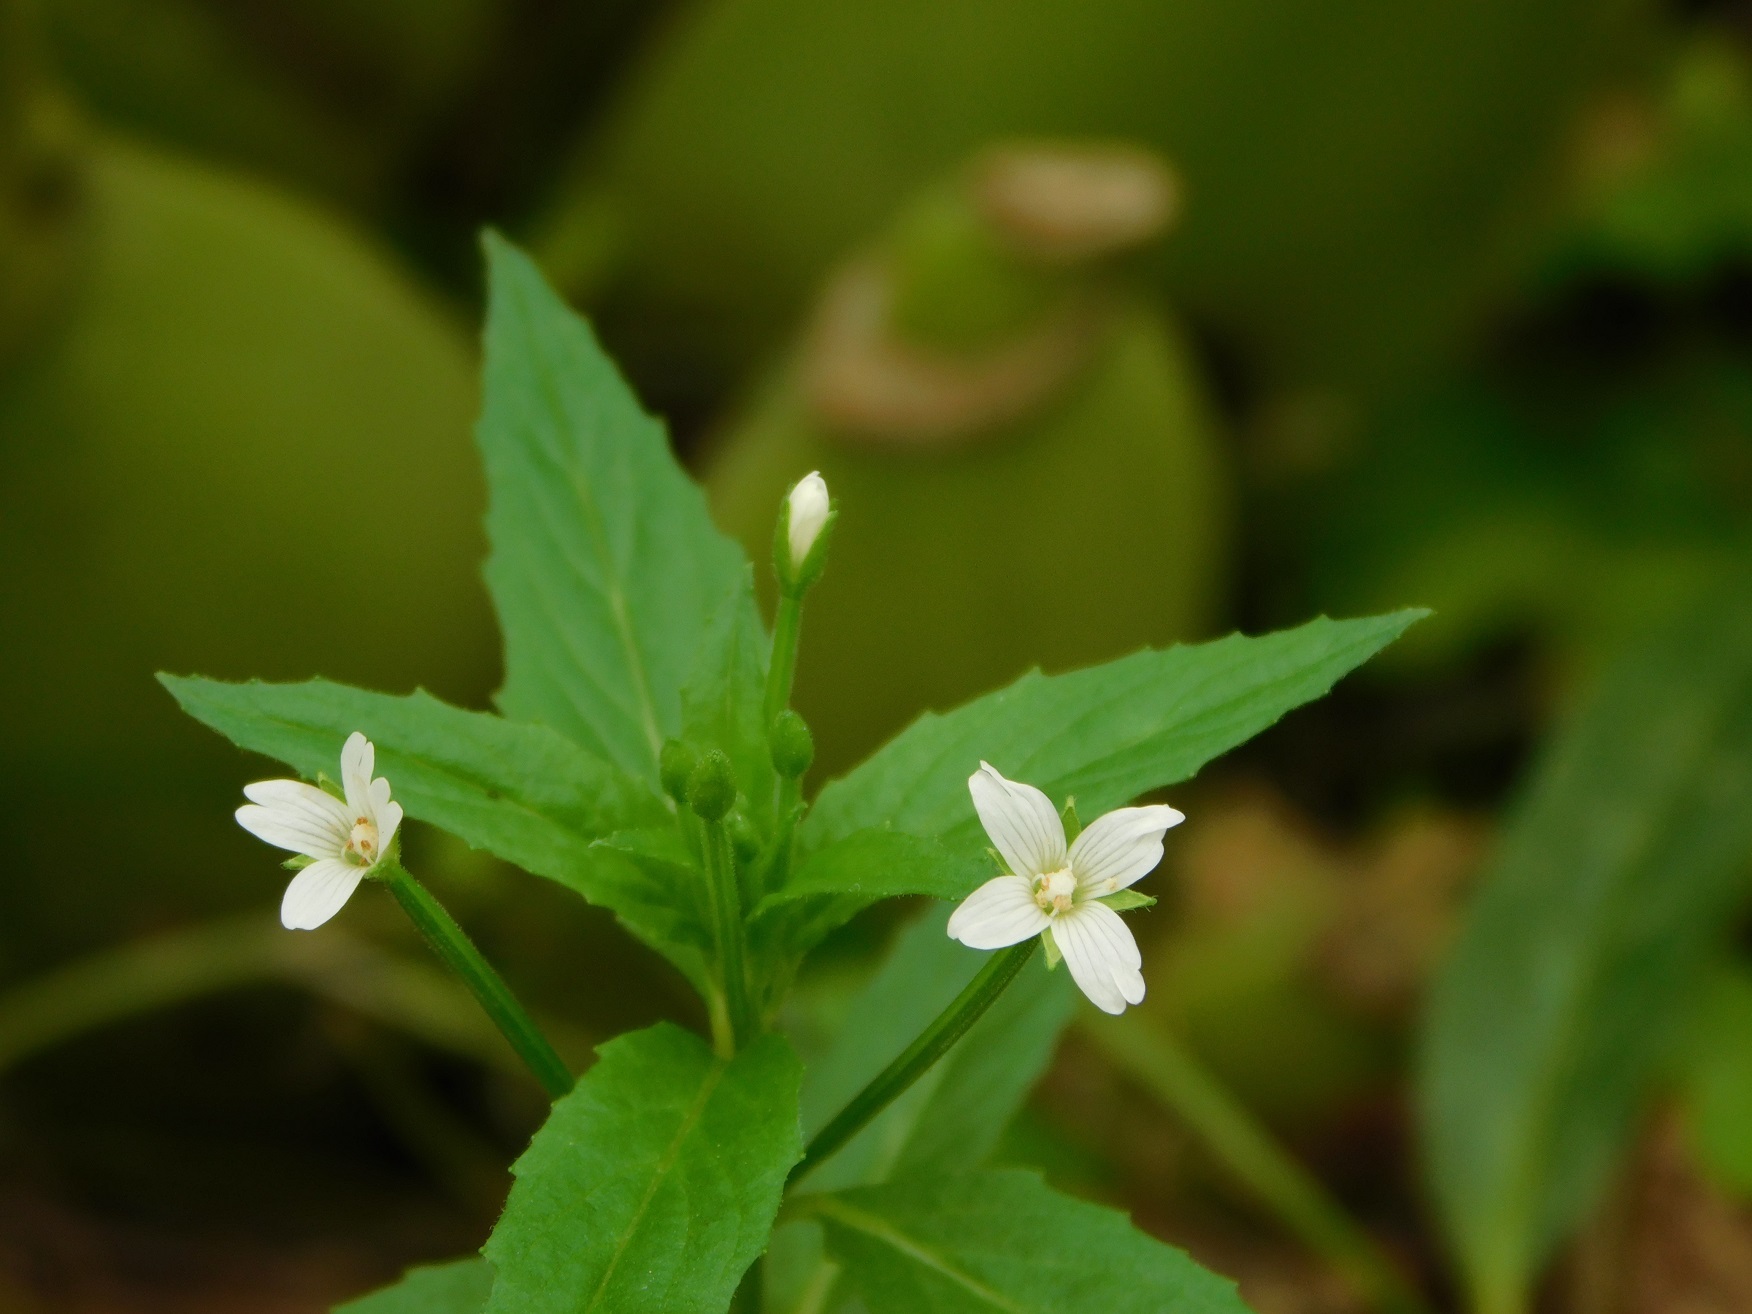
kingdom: Plantae
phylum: Tracheophyta
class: Magnoliopsida
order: Myrtales
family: Onagraceae
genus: Epilobium
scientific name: Epilobium ciliatum
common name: American willowherb
